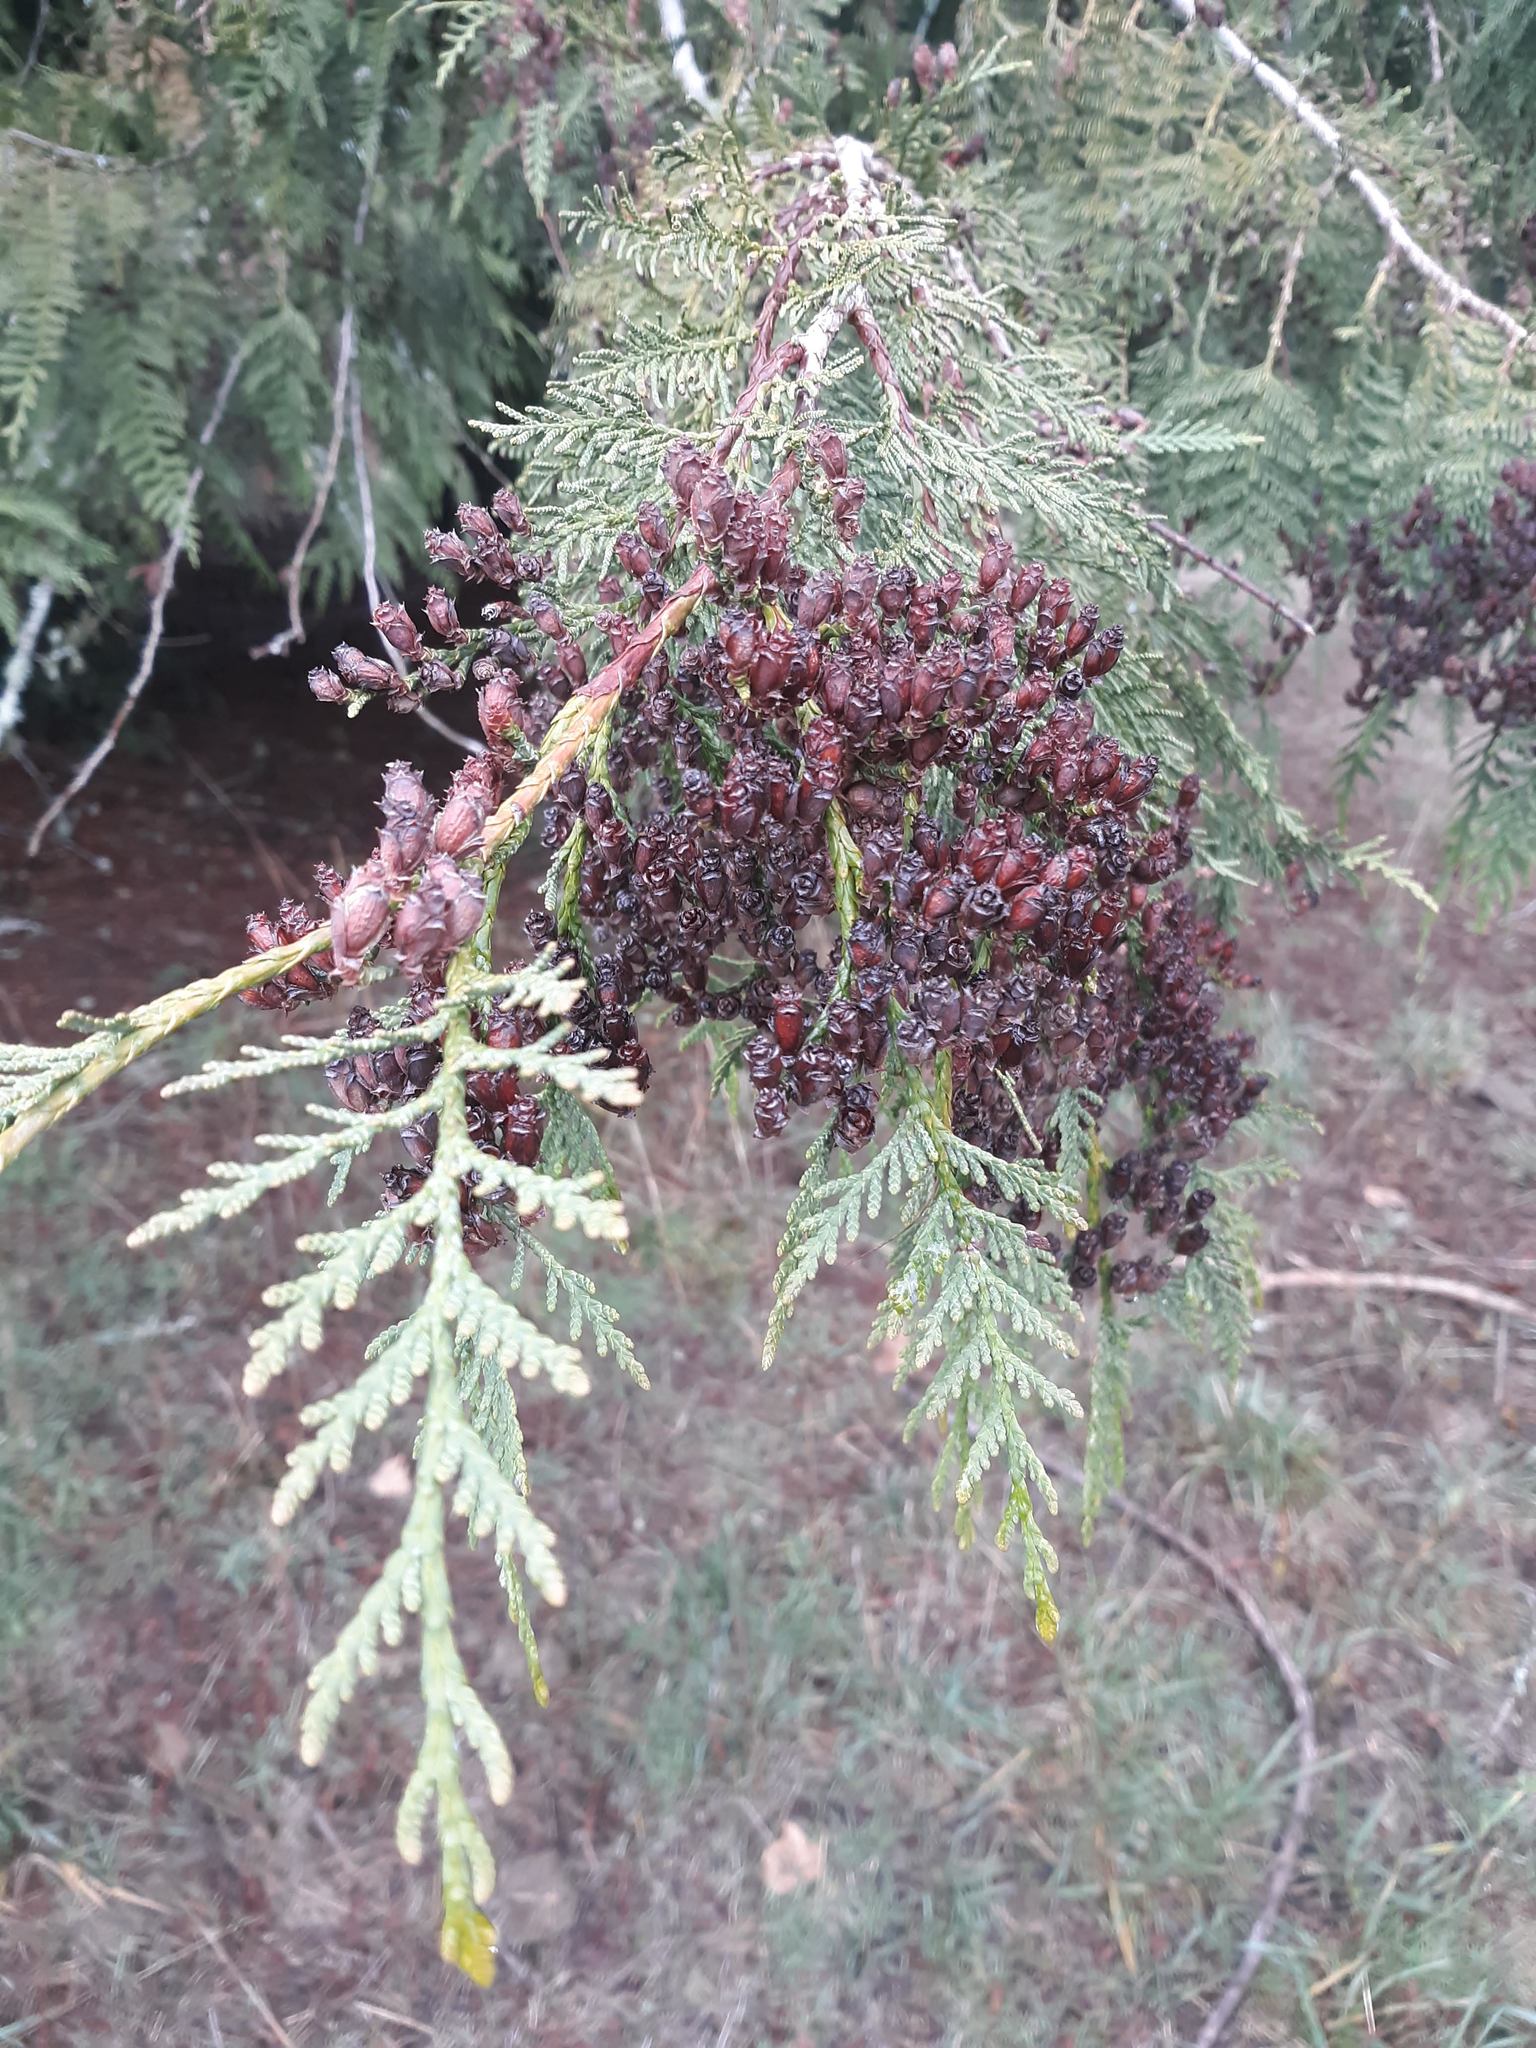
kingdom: Plantae
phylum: Tracheophyta
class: Pinopsida
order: Pinales
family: Cupressaceae
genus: Thuja
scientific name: Thuja plicata
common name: Western red-cedar
